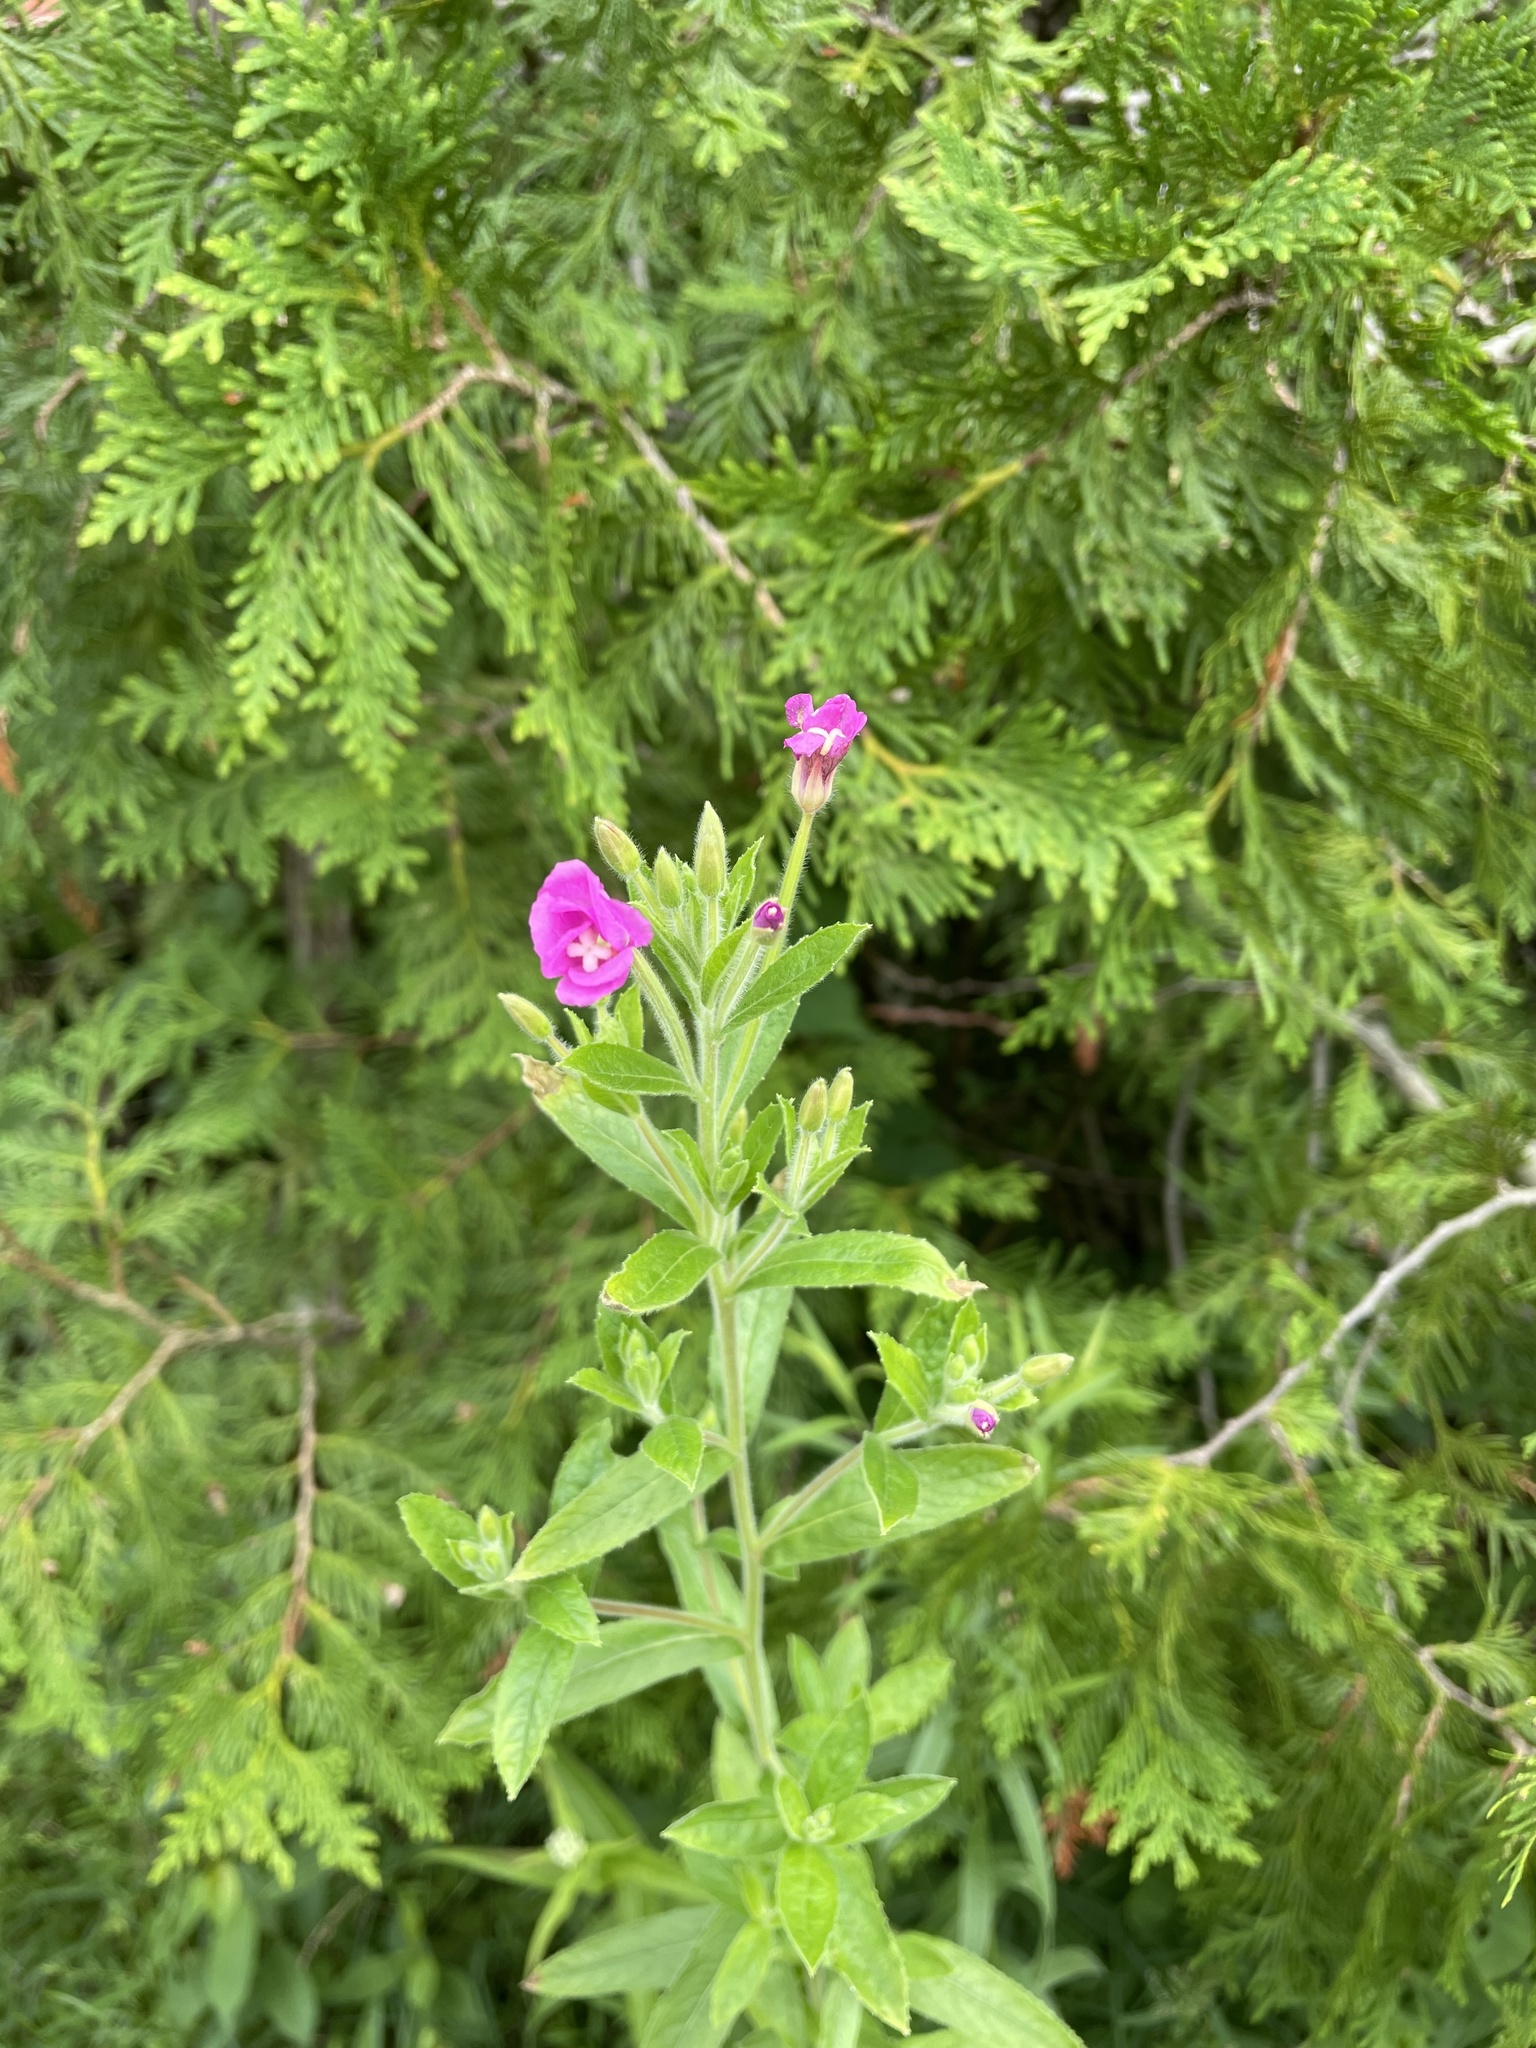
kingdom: Plantae
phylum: Tracheophyta
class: Magnoliopsida
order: Myrtales
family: Onagraceae
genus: Epilobium
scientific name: Epilobium hirsutum
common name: Great willowherb
